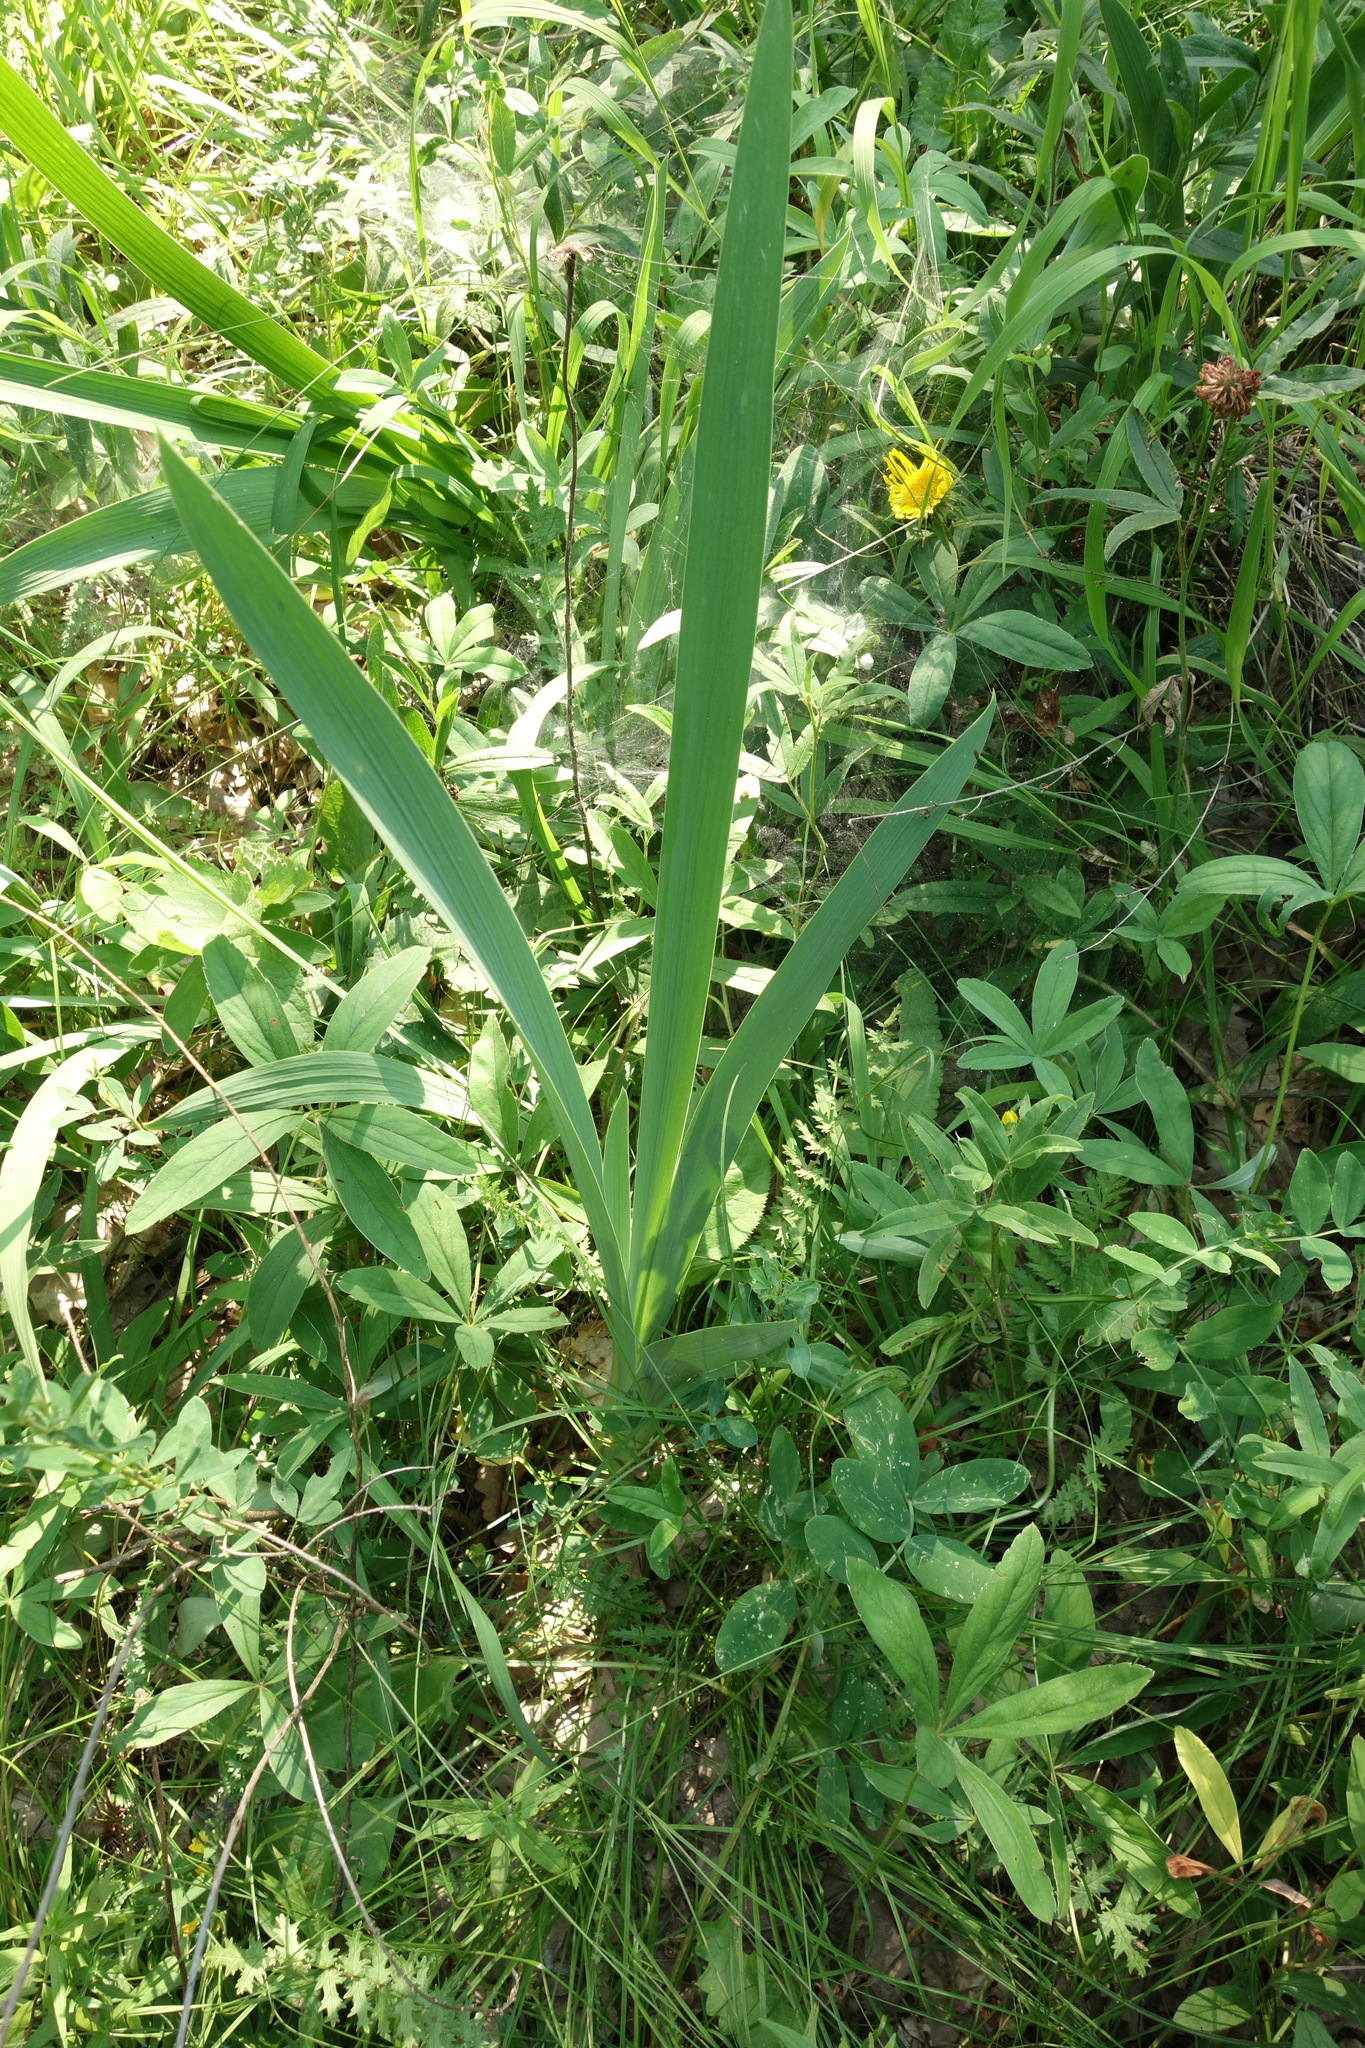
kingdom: Plantae
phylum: Tracheophyta
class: Liliopsida
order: Asparagales
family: Iridaceae
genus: Iris
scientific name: Iris aphylla
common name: Stool iris
